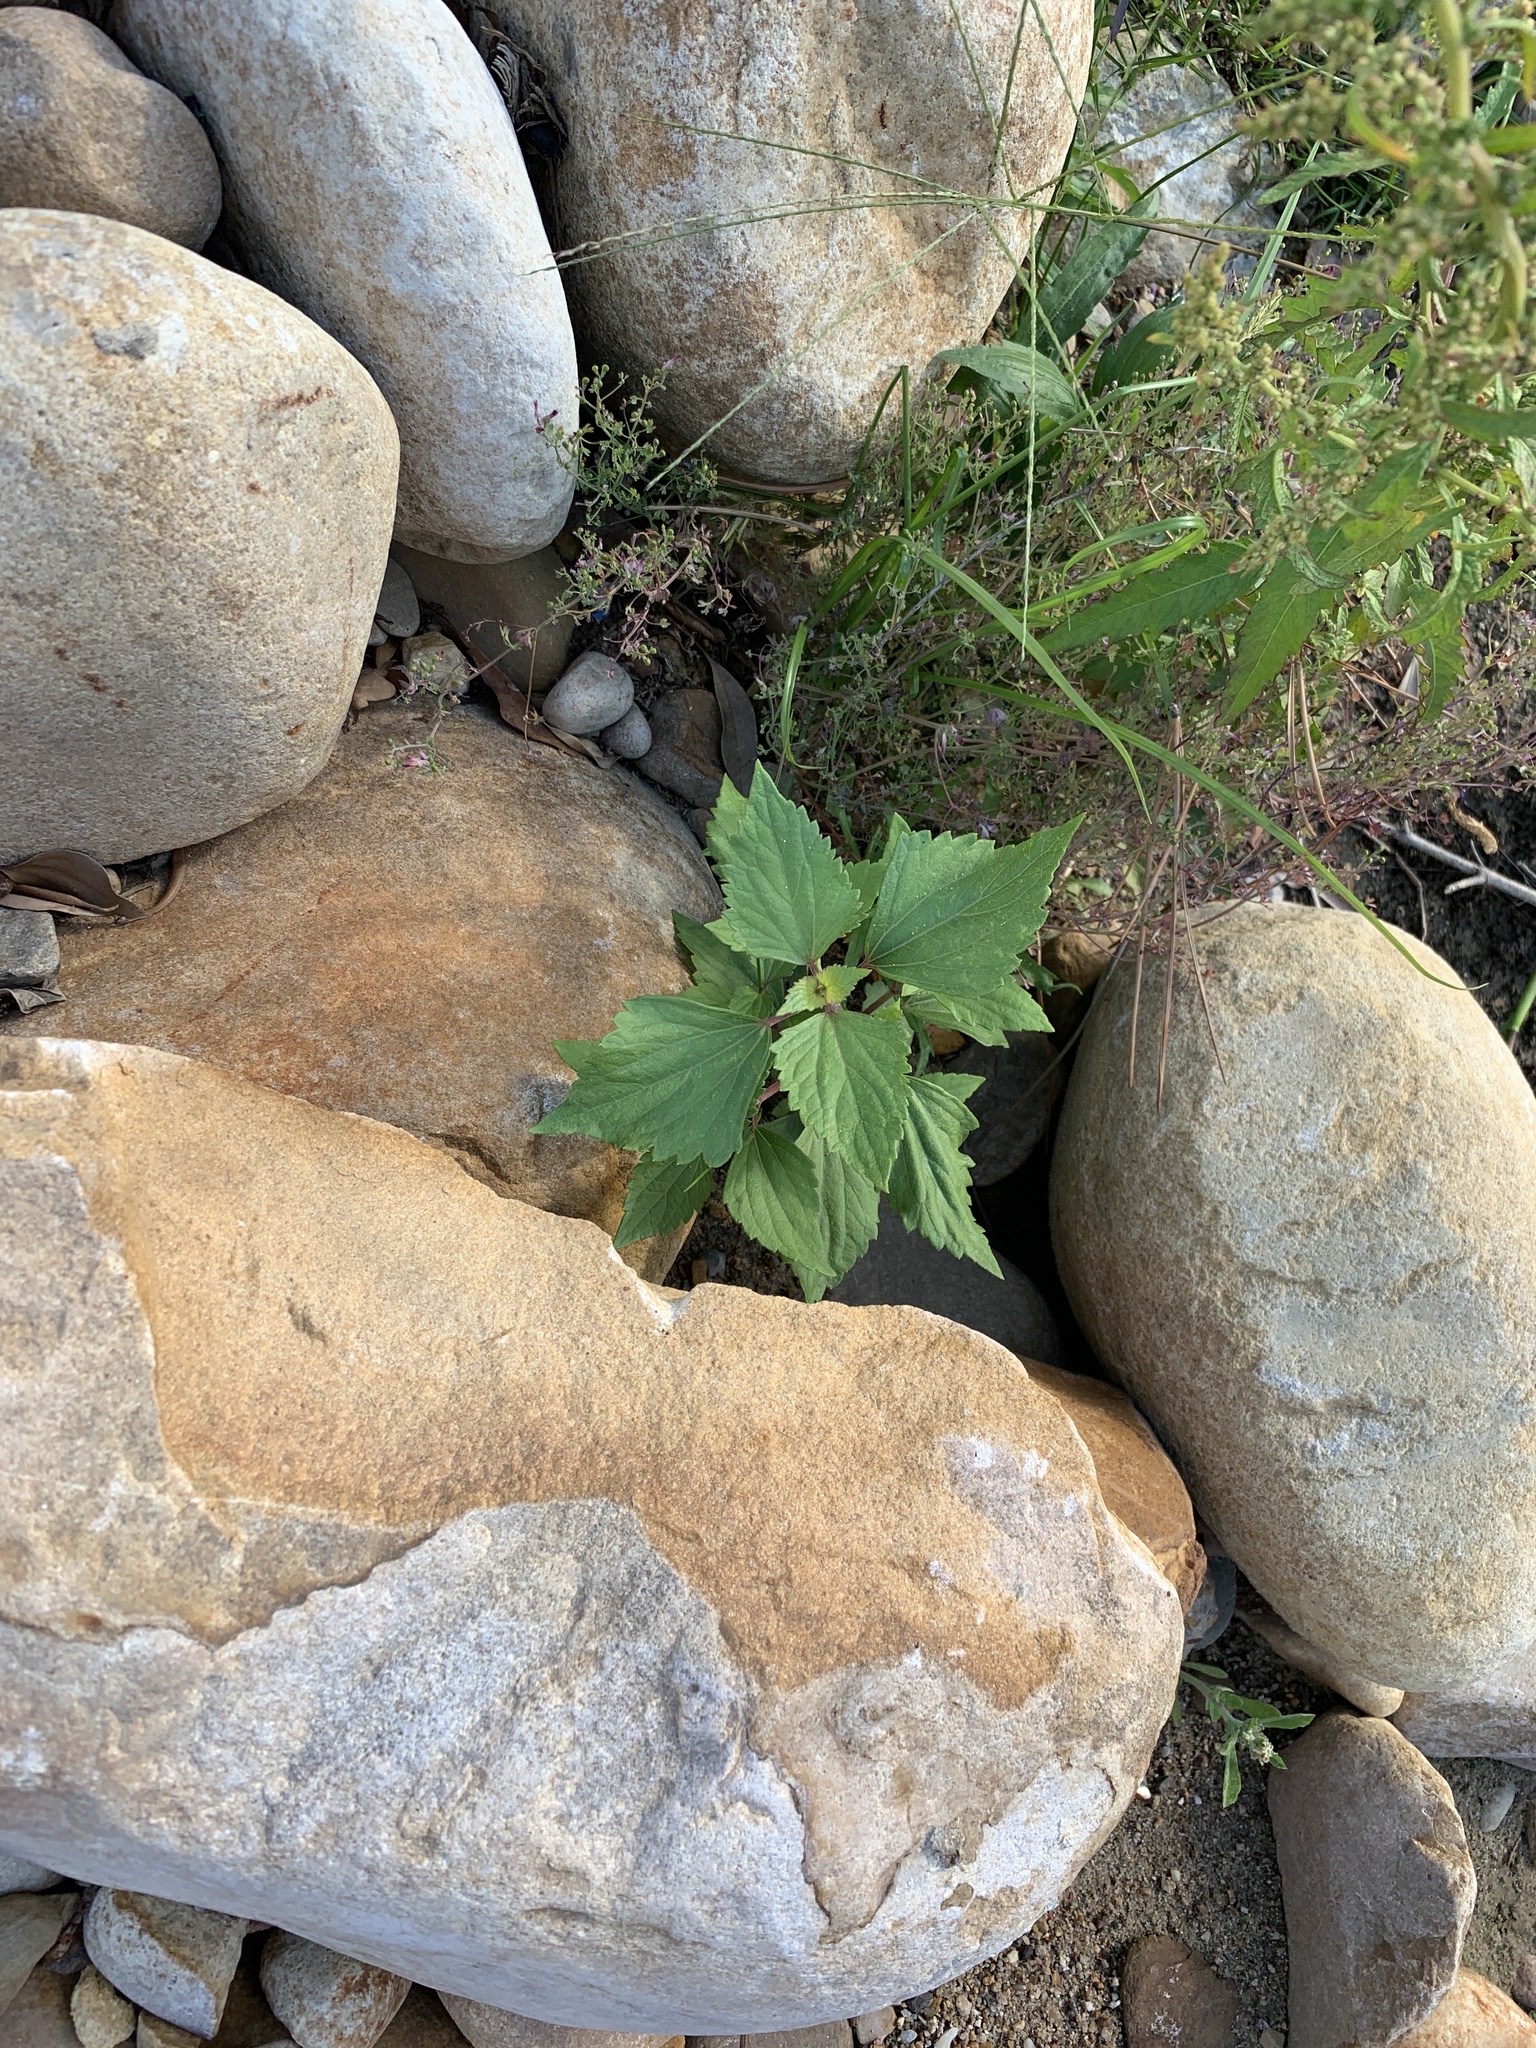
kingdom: Plantae
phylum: Tracheophyta
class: Magnoliopsida
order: Asterales
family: Asteraceae
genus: Ageratina
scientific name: Ageratina adenophora
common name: Sticky snakeroot
